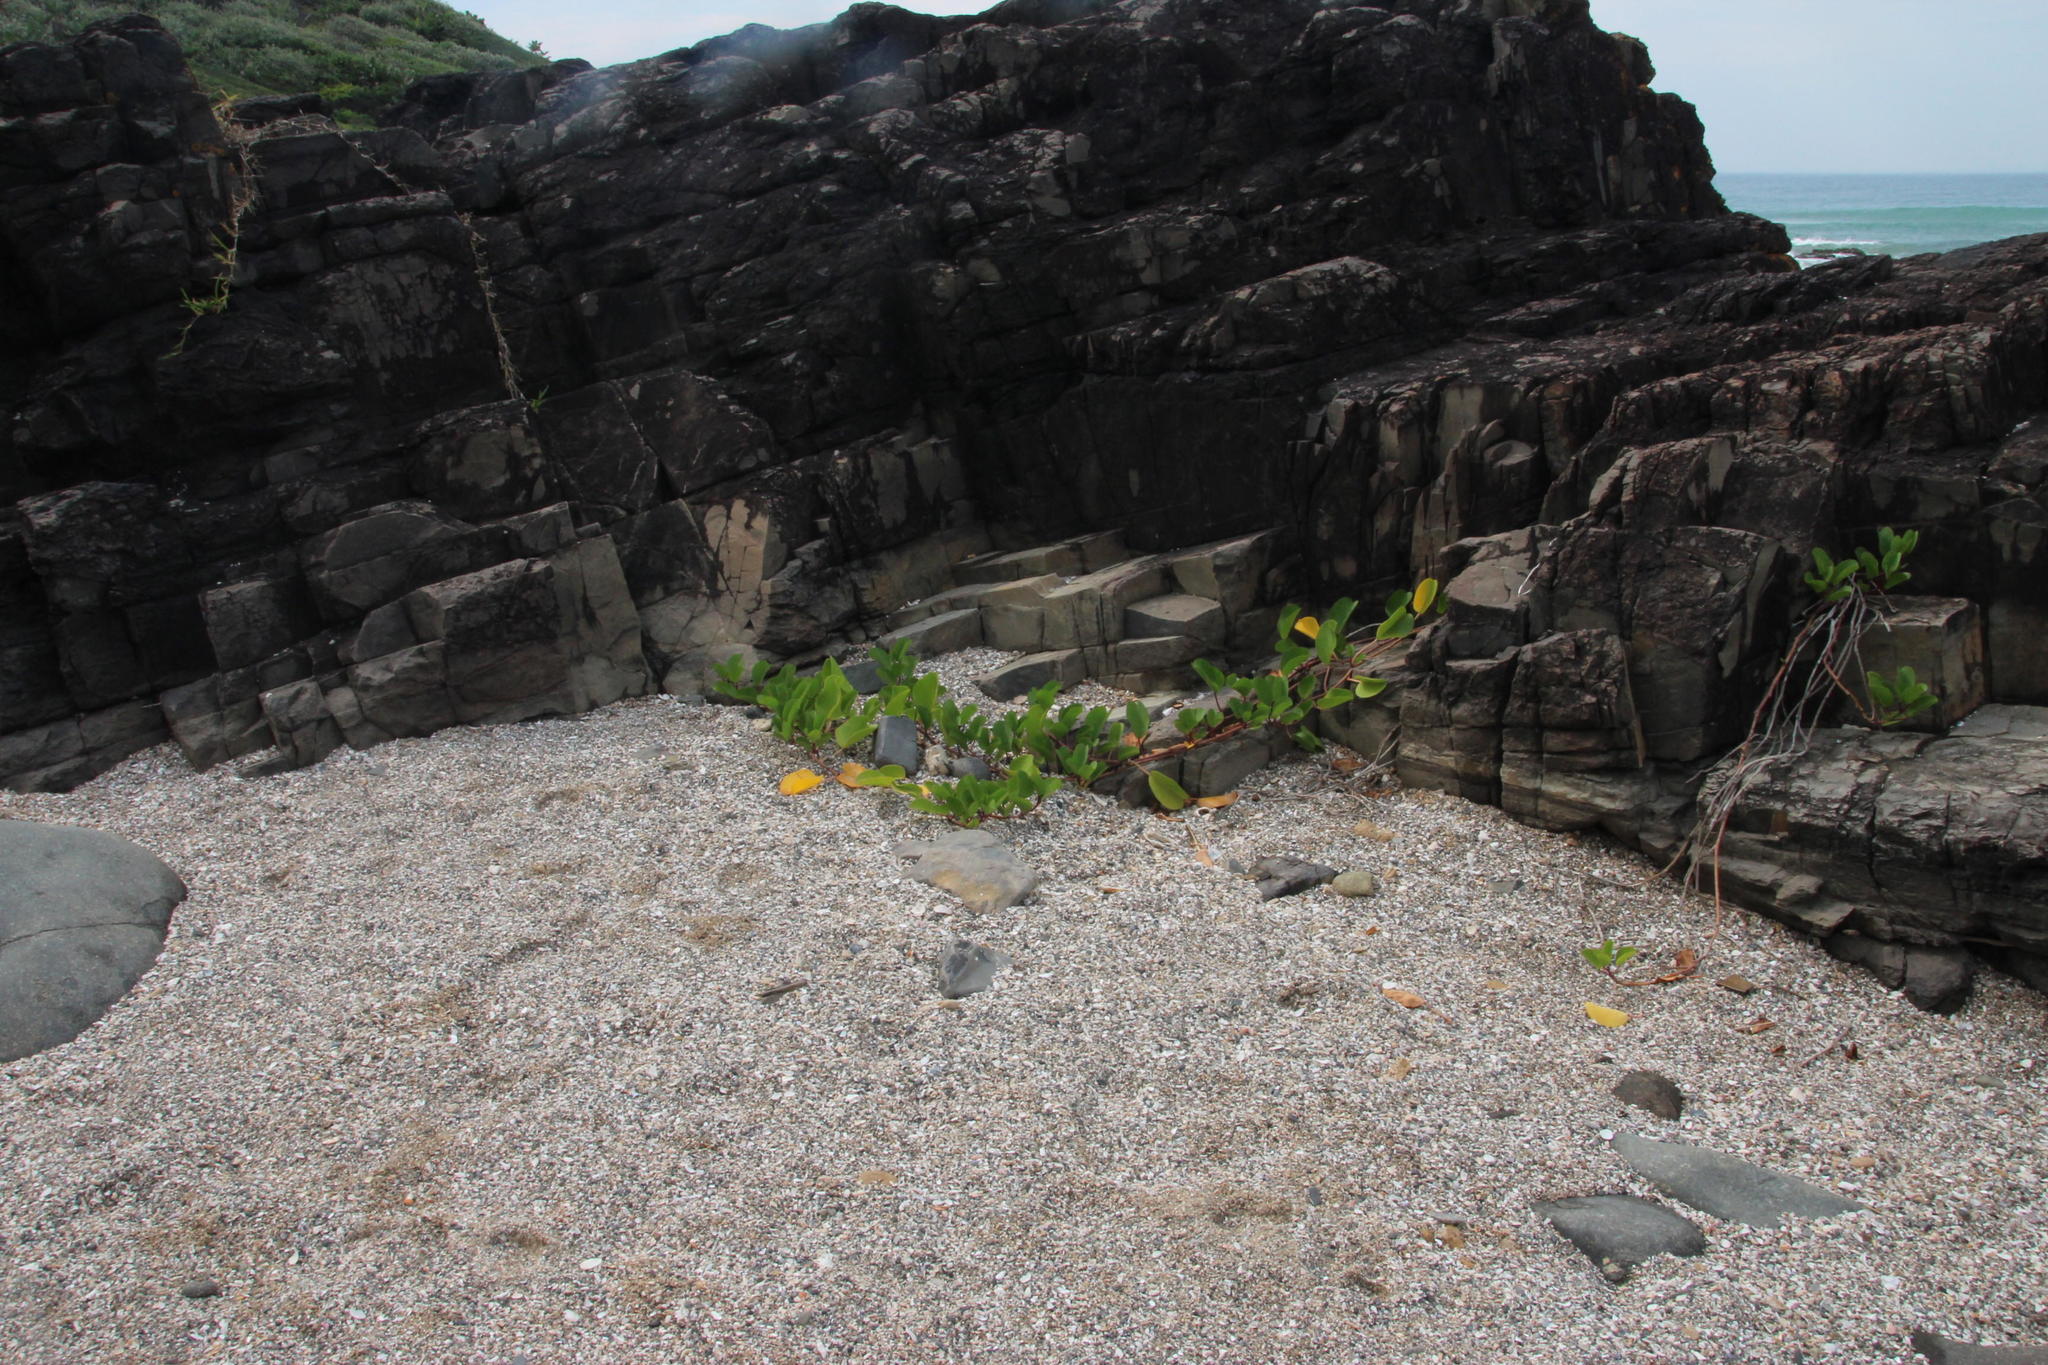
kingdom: Plantae
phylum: Tracheophyta
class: Magnoliopsida
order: Solanales
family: Convolvulaceae
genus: Ipomoea
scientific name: Ipomoea pes-caprae
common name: Beach morning glory
